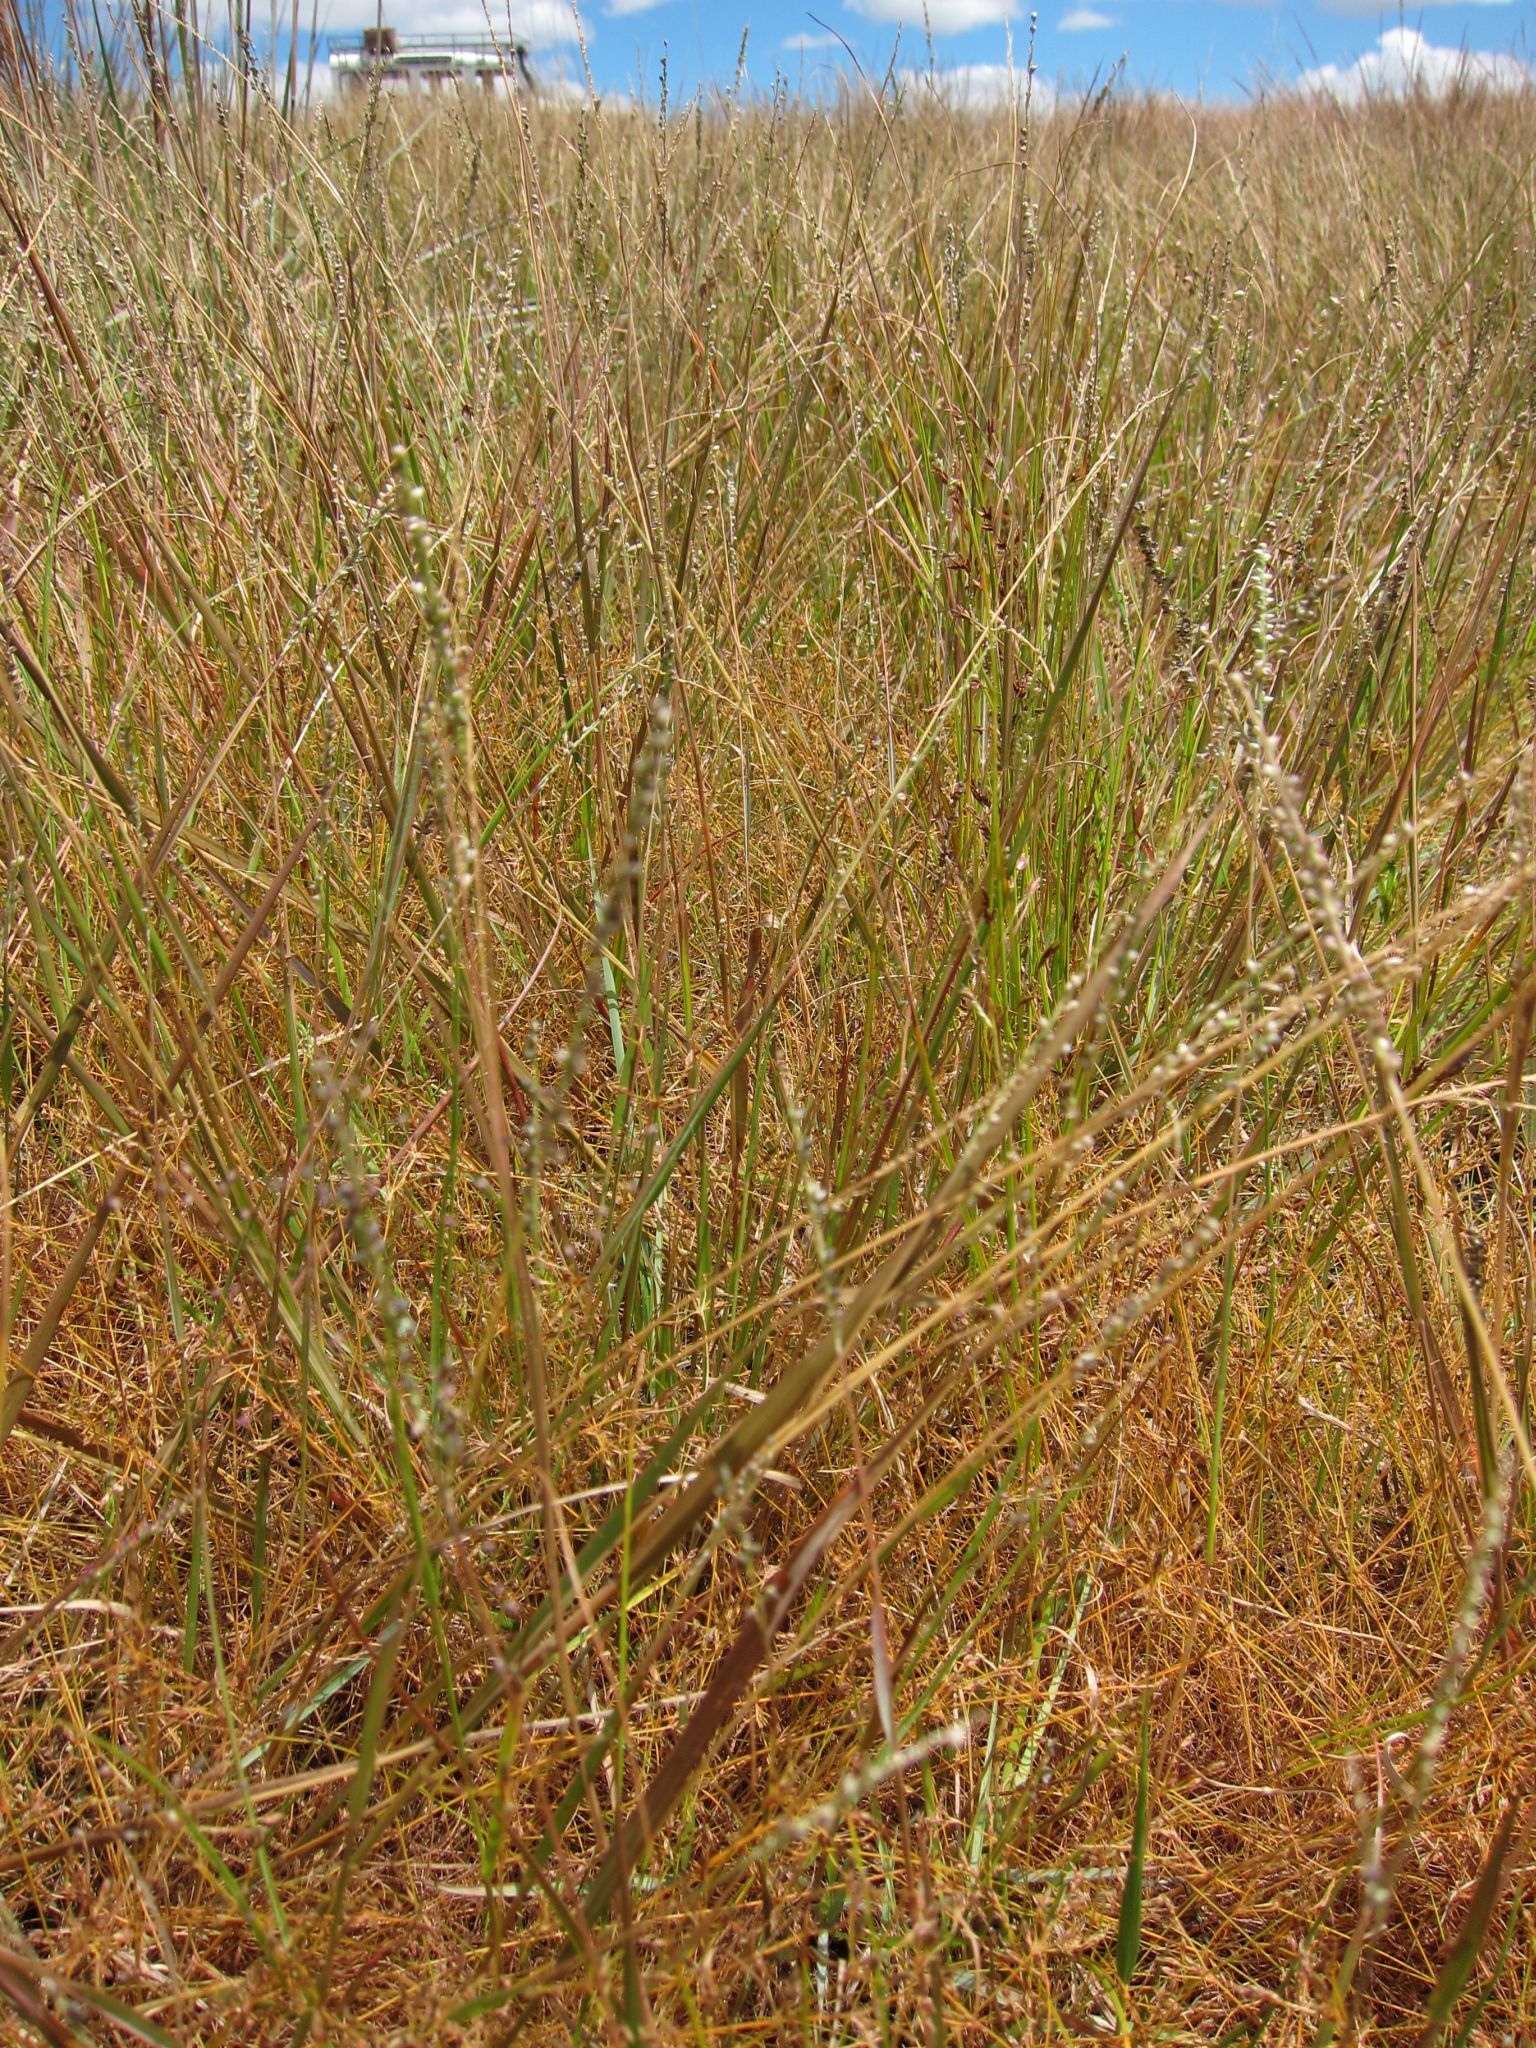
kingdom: Plantae
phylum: Tracheophyta
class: Liliopsida
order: Poales
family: Poaceae
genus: Setaria
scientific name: Setaria scottii
